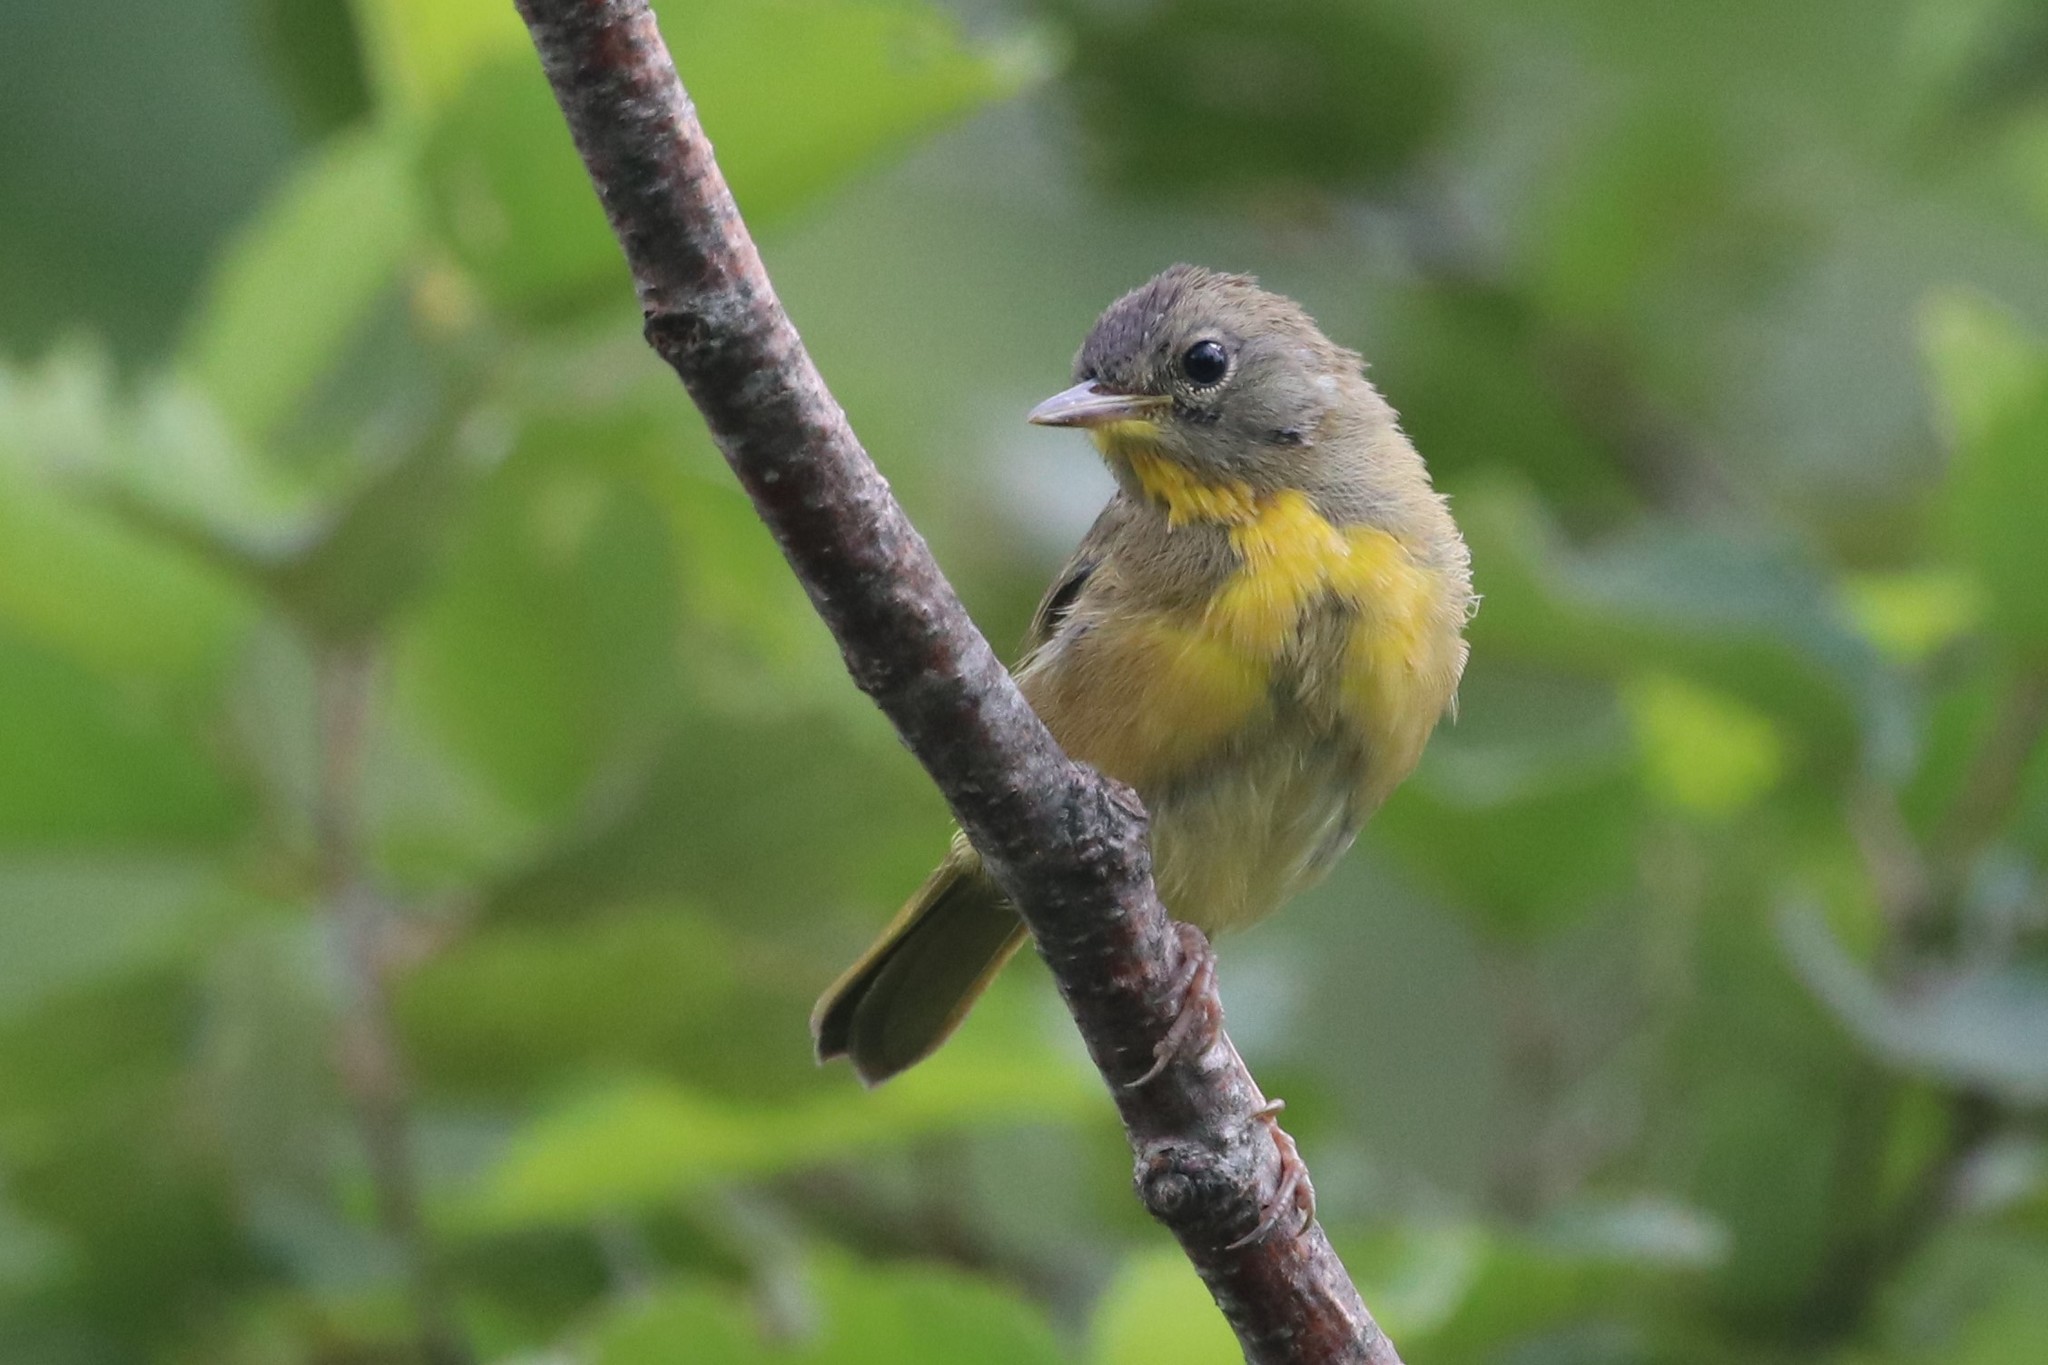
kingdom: Animalia
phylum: Chordata
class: Aves
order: Passeriformes
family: Parulidae
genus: Geothlypis
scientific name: Geothlypis trichas
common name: Common yellowthroat
